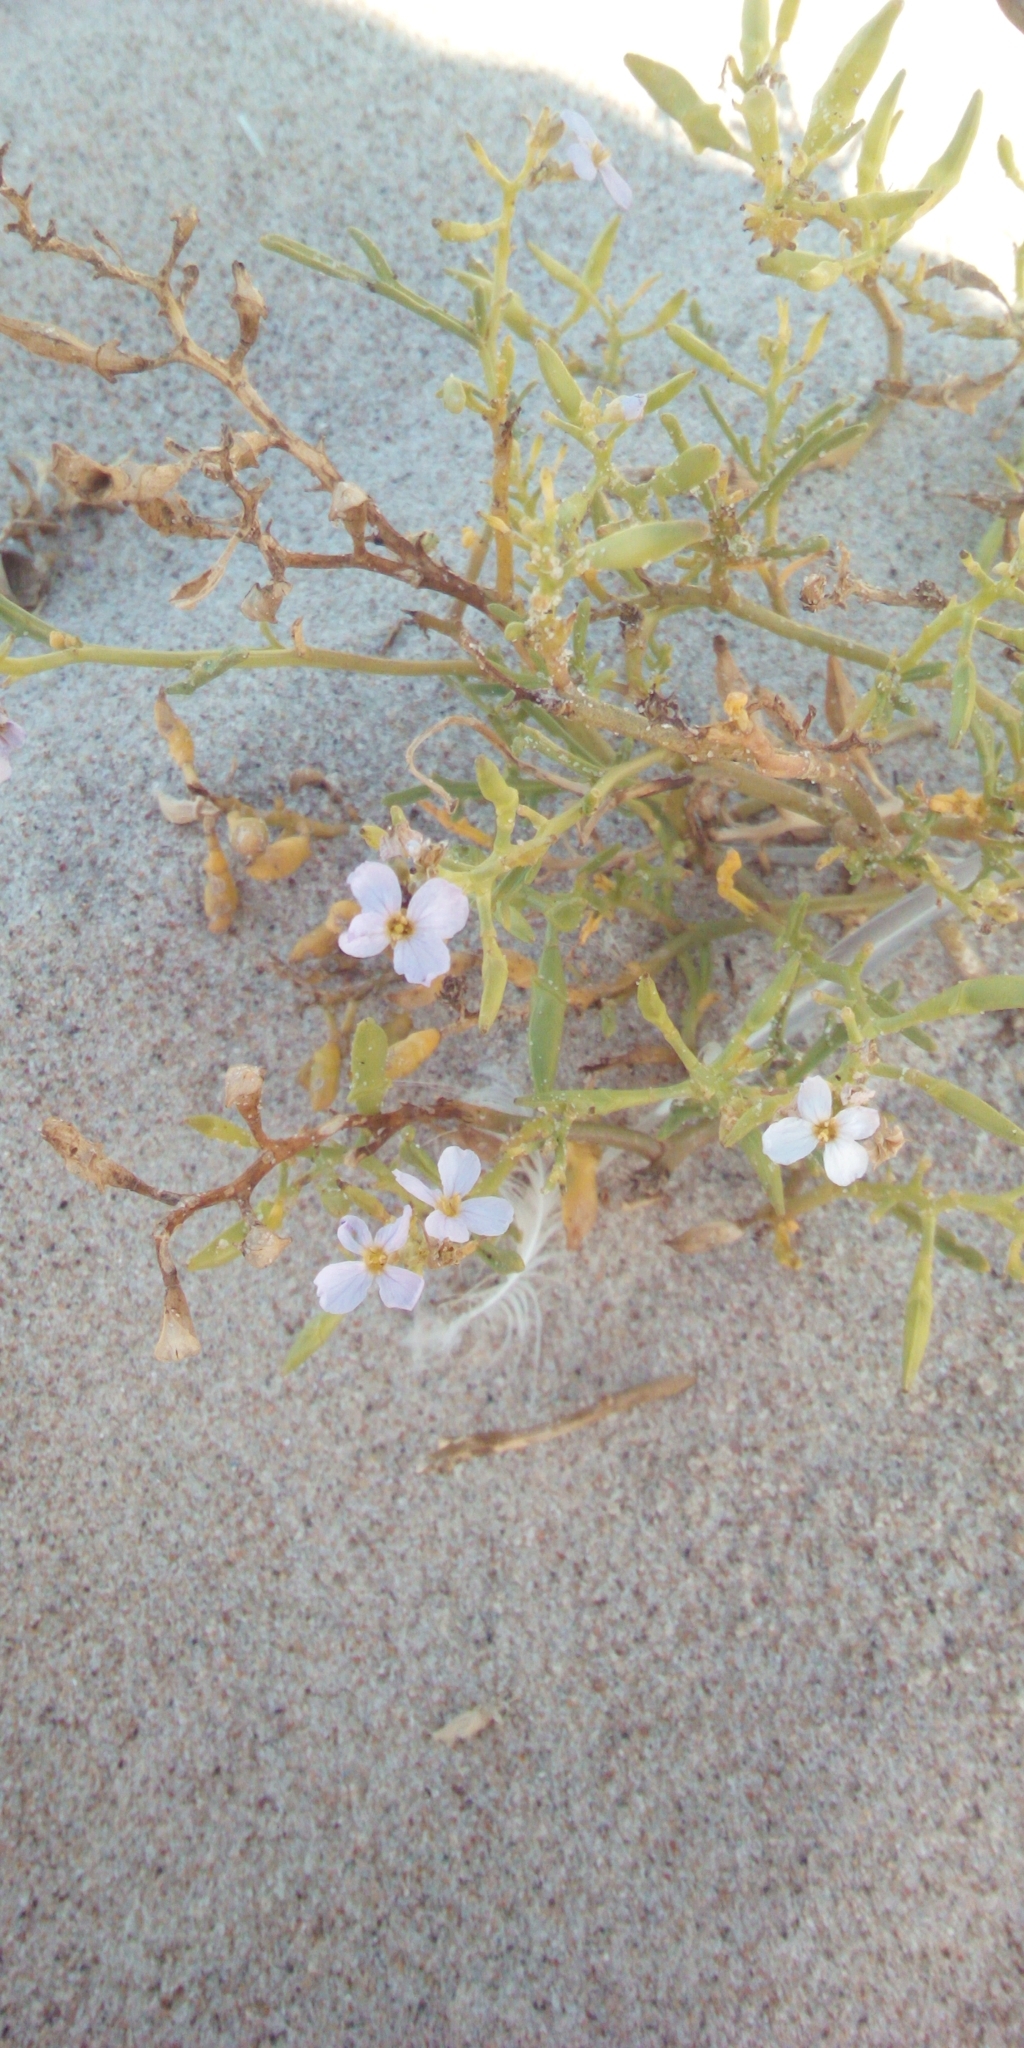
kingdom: Plantae
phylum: Tracheophyta
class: Magnoliopsida
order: Brassicales
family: Brassicaceae
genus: Cakile
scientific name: Cakile maritima
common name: Sea rocket
